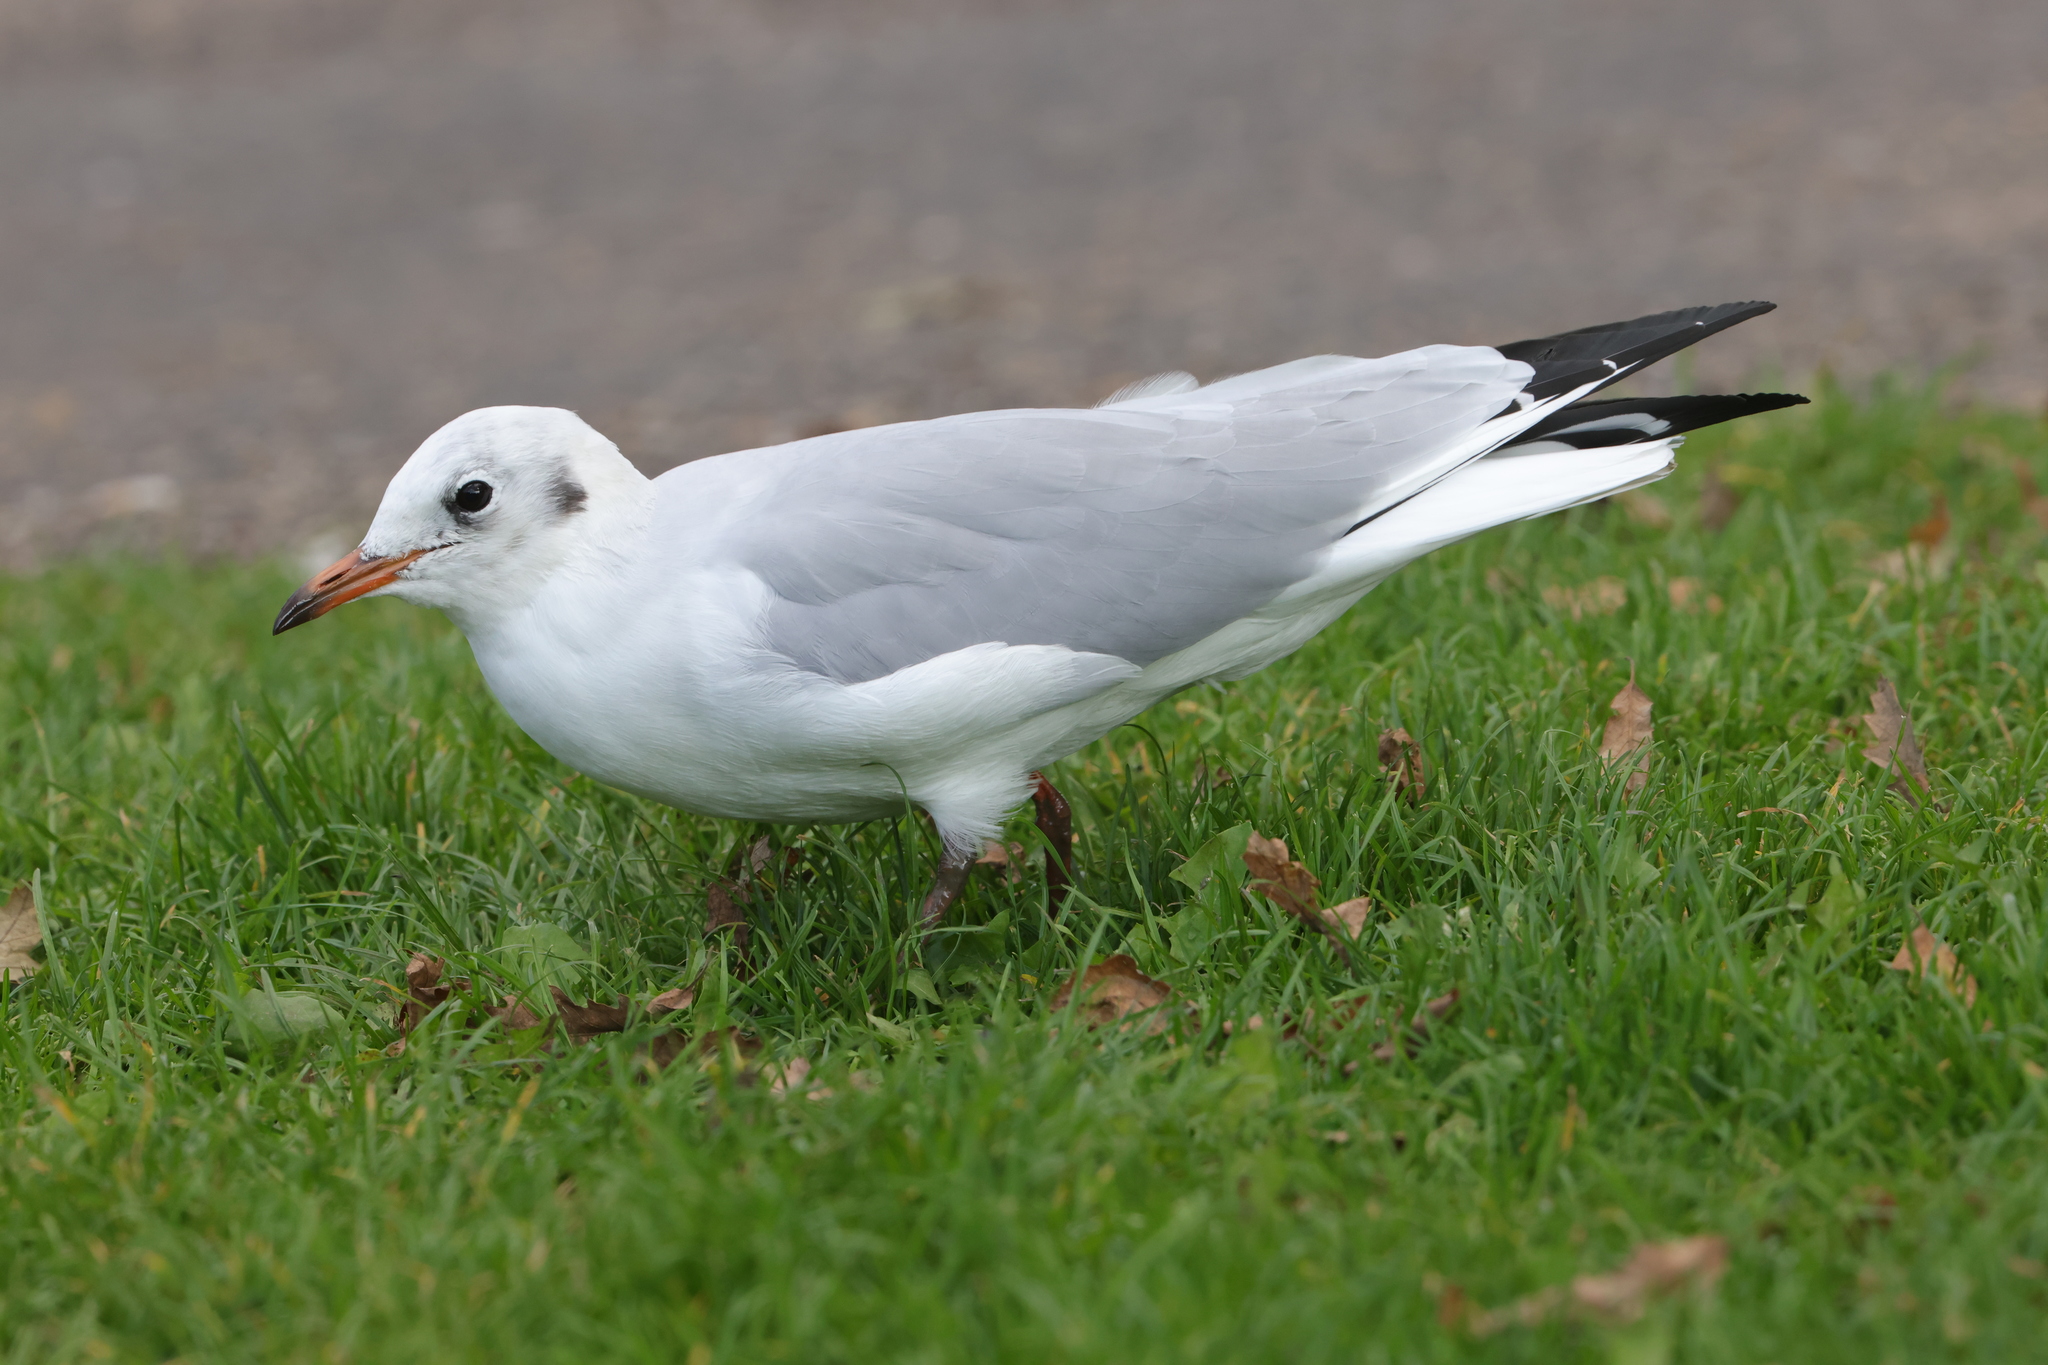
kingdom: Animalia
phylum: Chordata
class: Aves
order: Charadriiformes
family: Laridae
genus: Chroicocephalus
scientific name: Chroicocephalus ridibundus
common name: Black-headed gull
